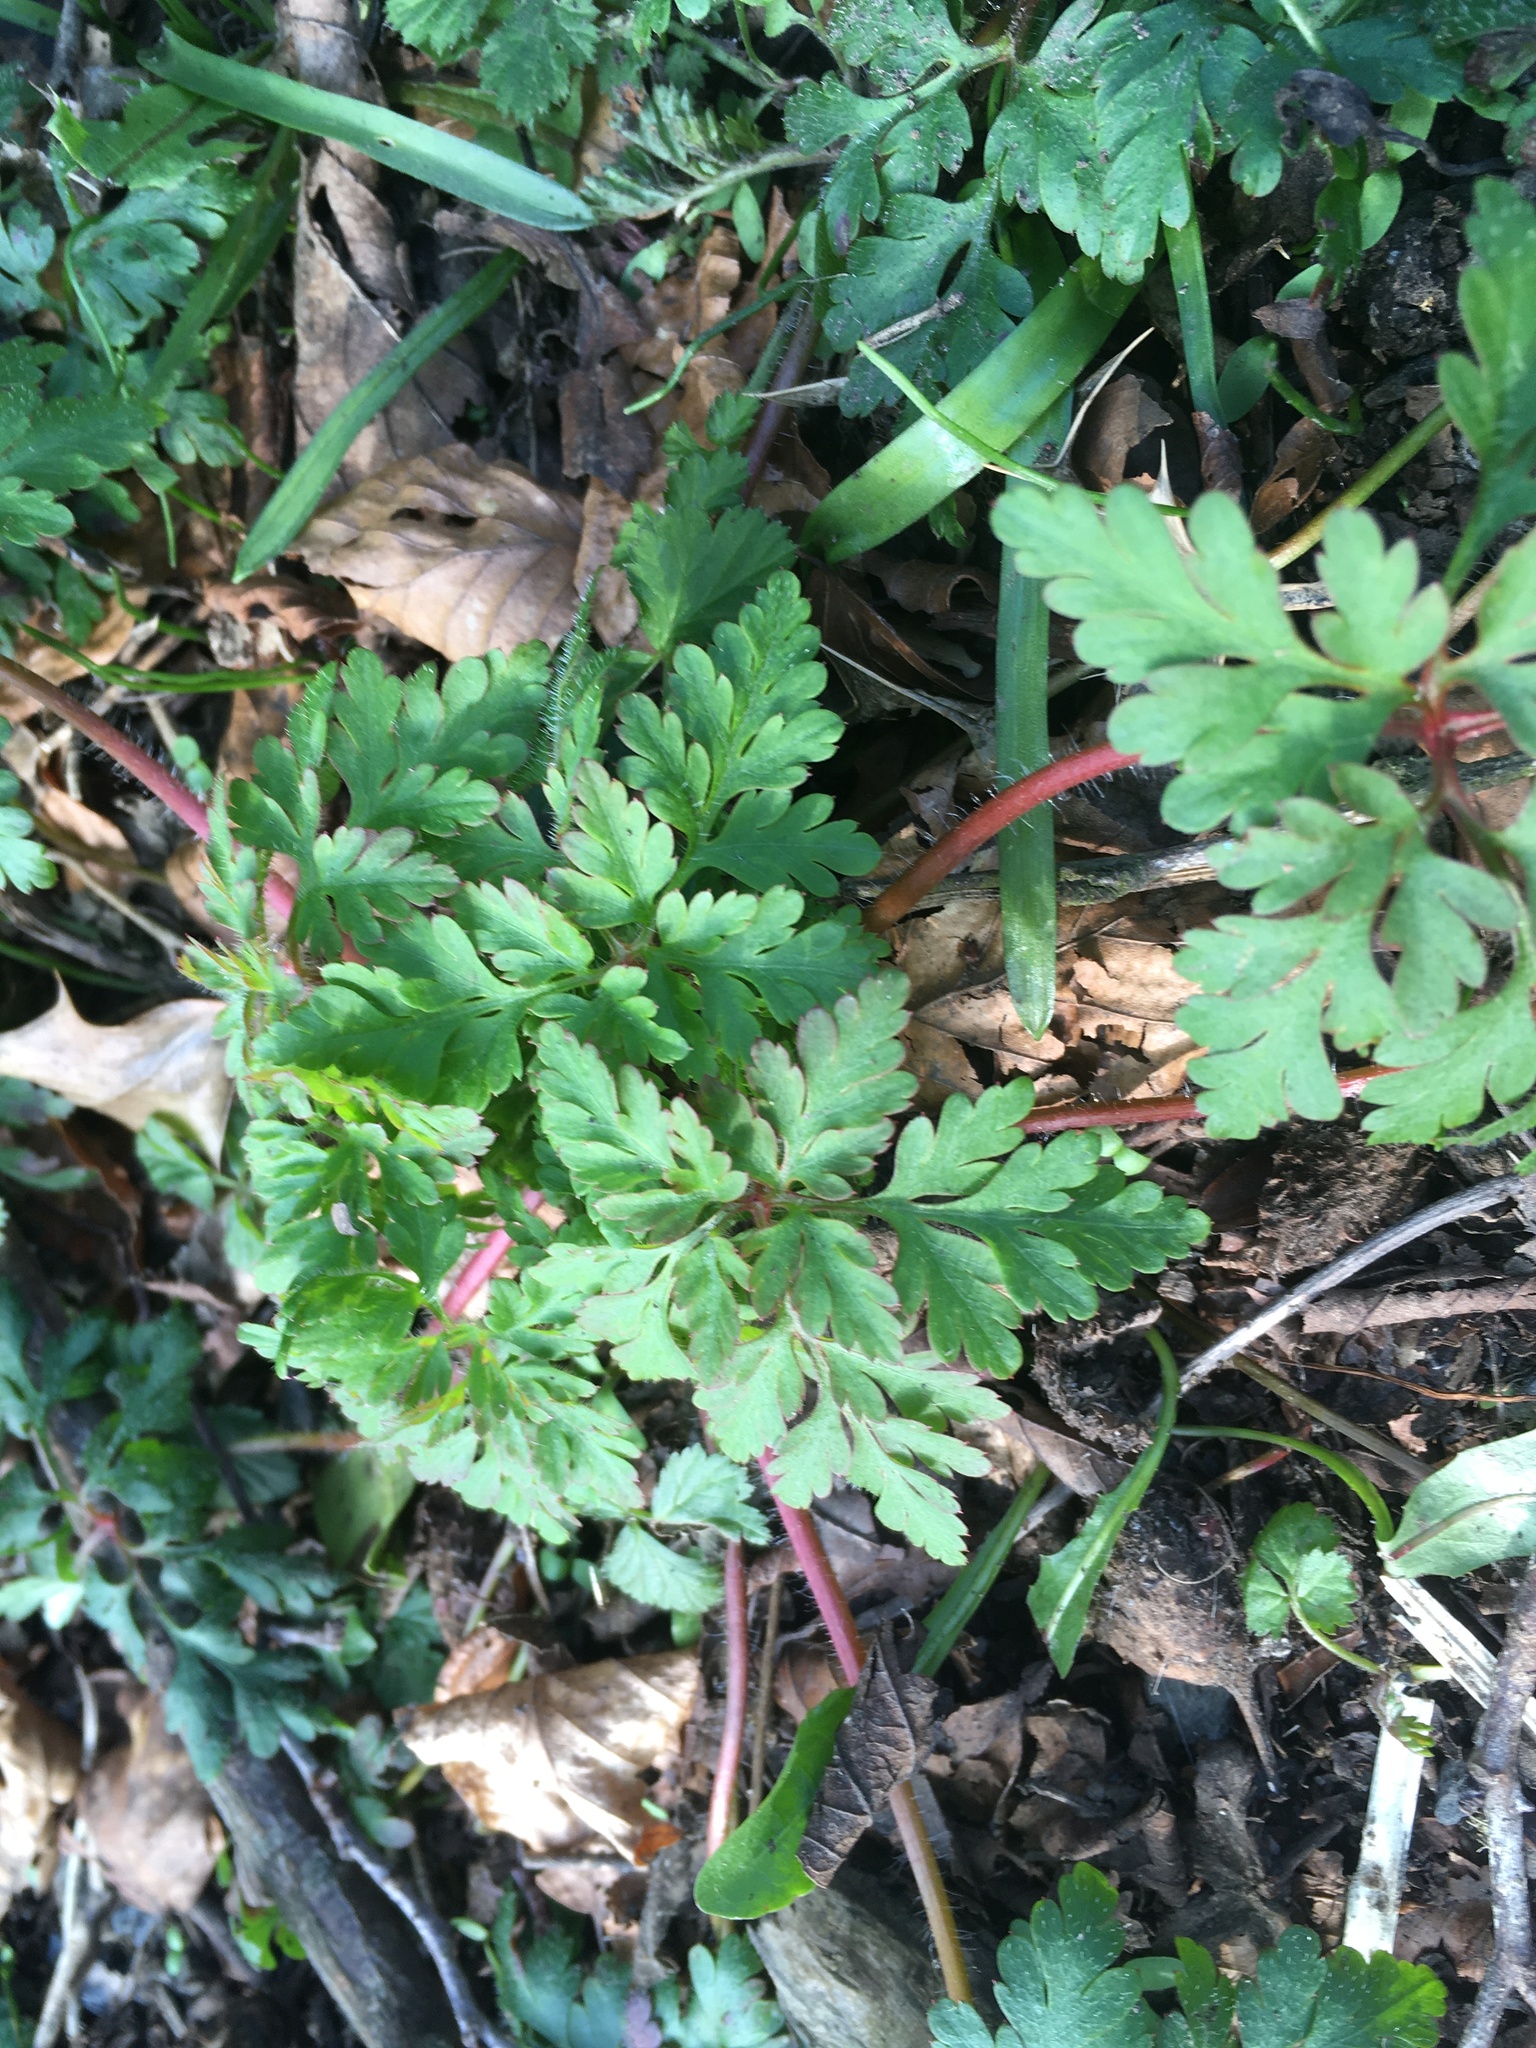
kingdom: Plantae
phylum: Tracheophyta
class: Magnoliopsida
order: Geraniales
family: Geraniaceae
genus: Geranium
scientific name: Geranium robertianum
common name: Herb-robert
